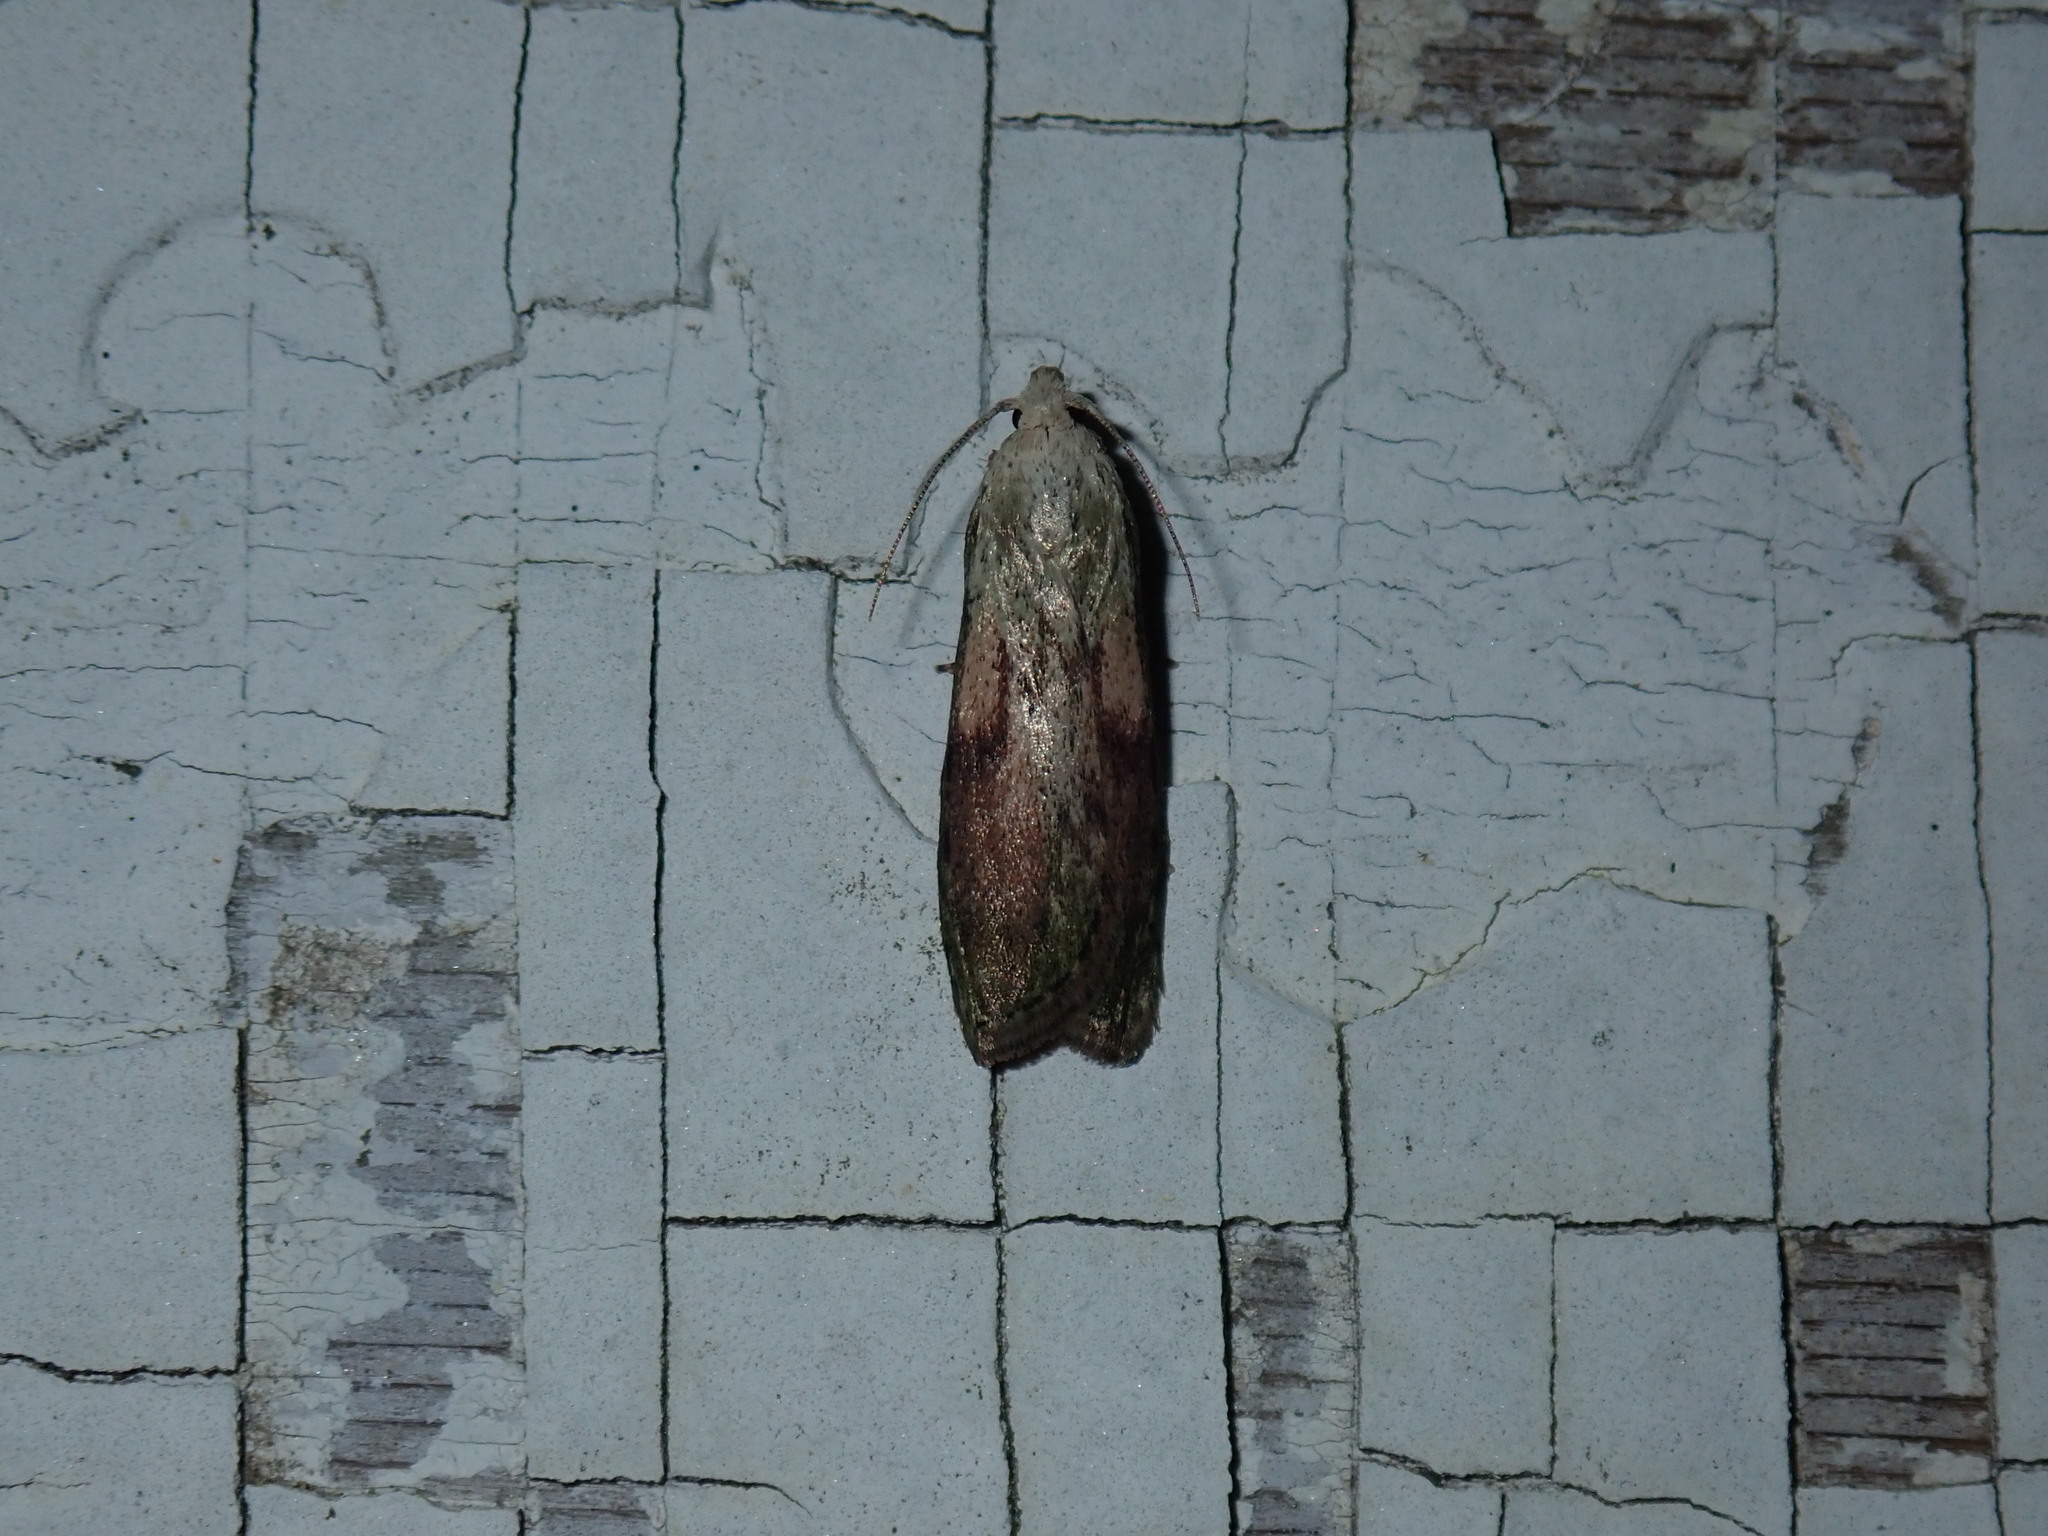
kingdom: Animalia
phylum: Arthropoda
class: Insecta
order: Lepidoptera
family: Pyralidae
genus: Aphomia
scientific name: Aphomia sociella
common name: Bee moth
